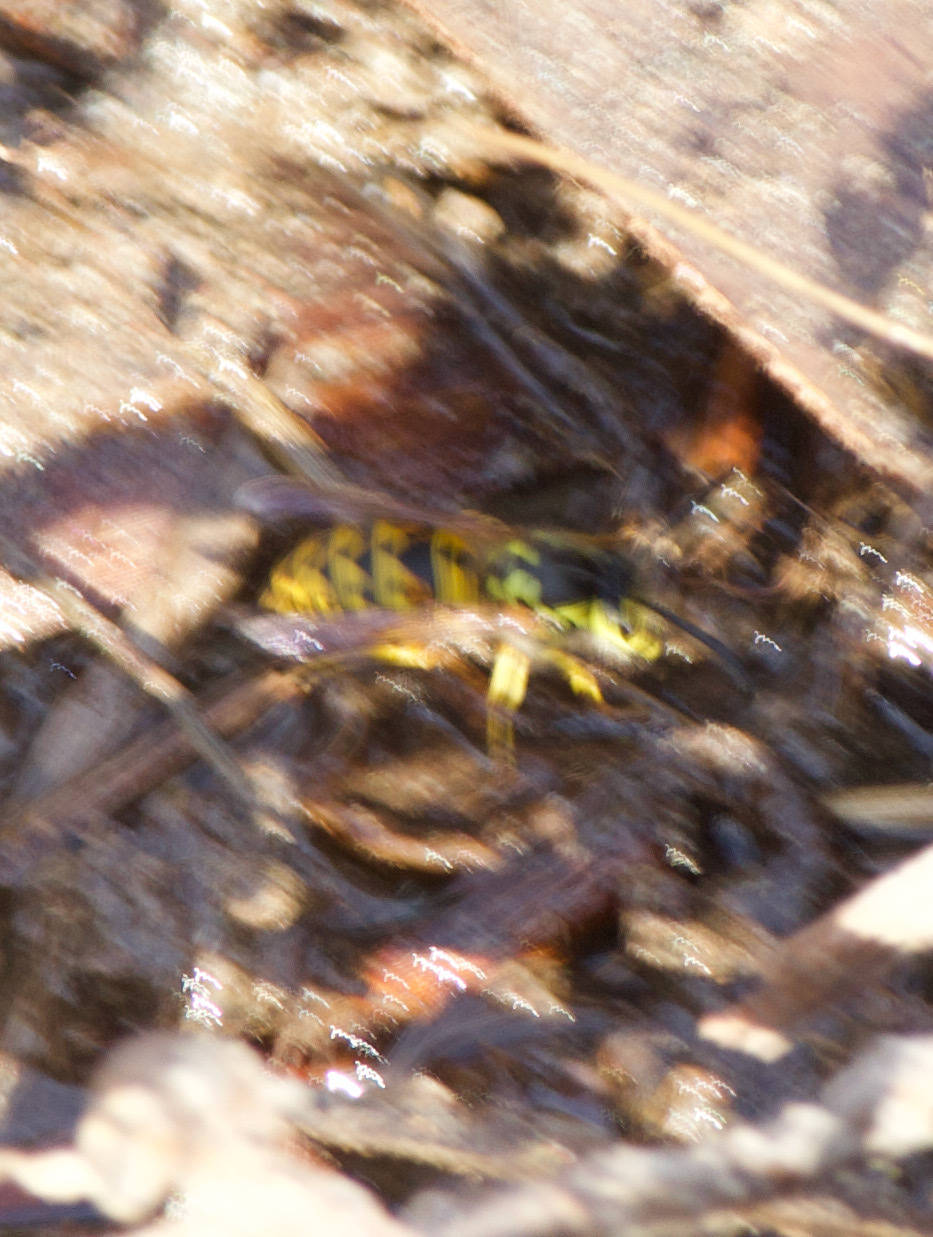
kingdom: Animalia
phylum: Arthropoda
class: Insecta
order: Hymenoptera
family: Vespidae
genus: Vespula
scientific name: Vespula
